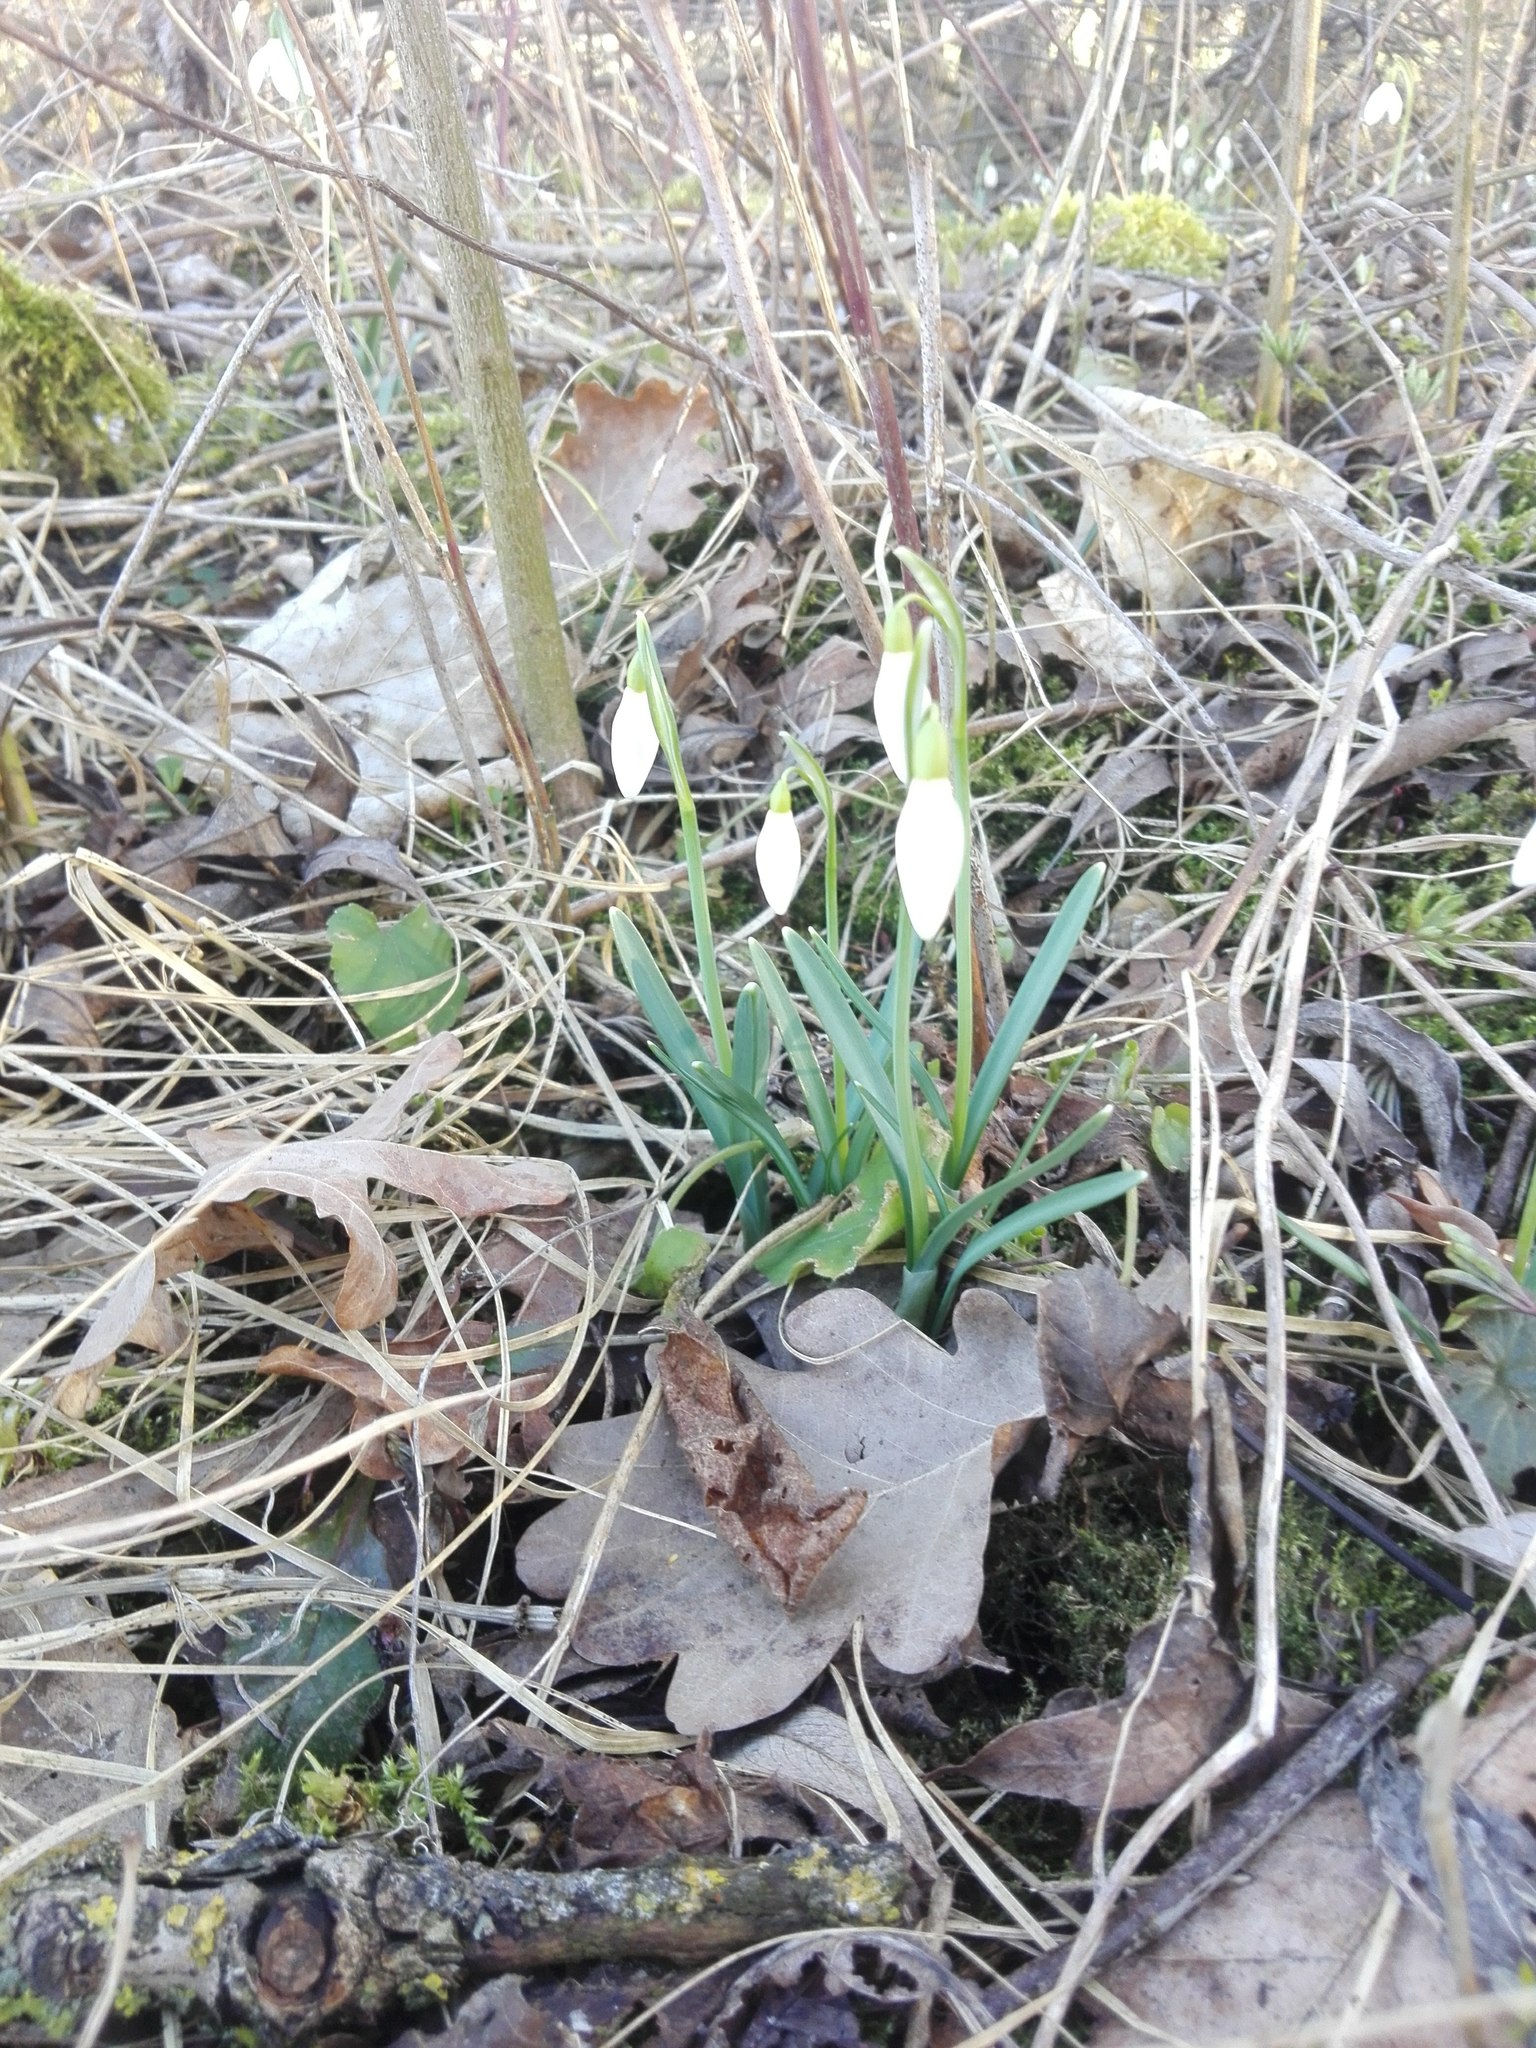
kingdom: Plantae
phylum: Tracheophyta
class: Liliopsida
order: Asparagales
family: Amaryllidaceae
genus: Galanthus
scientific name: Galanthus nivalis
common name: Snowdrop
